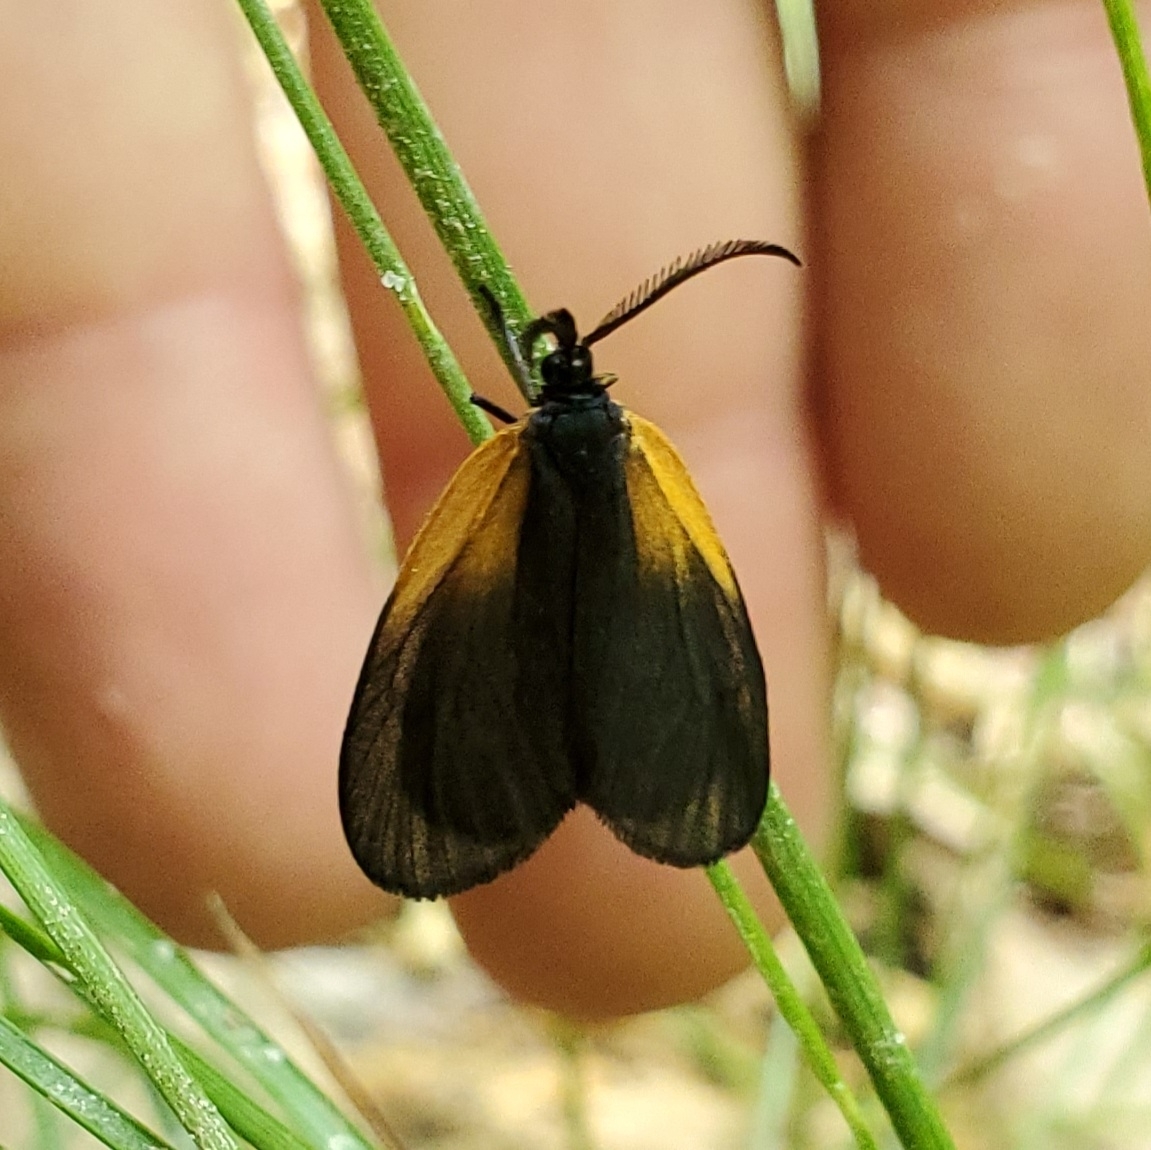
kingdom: Animalia
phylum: Arthropoda
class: Insecta
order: Lepidoptera
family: Zygaenidae
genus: Malthaca
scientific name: Malthaca dimidiata
